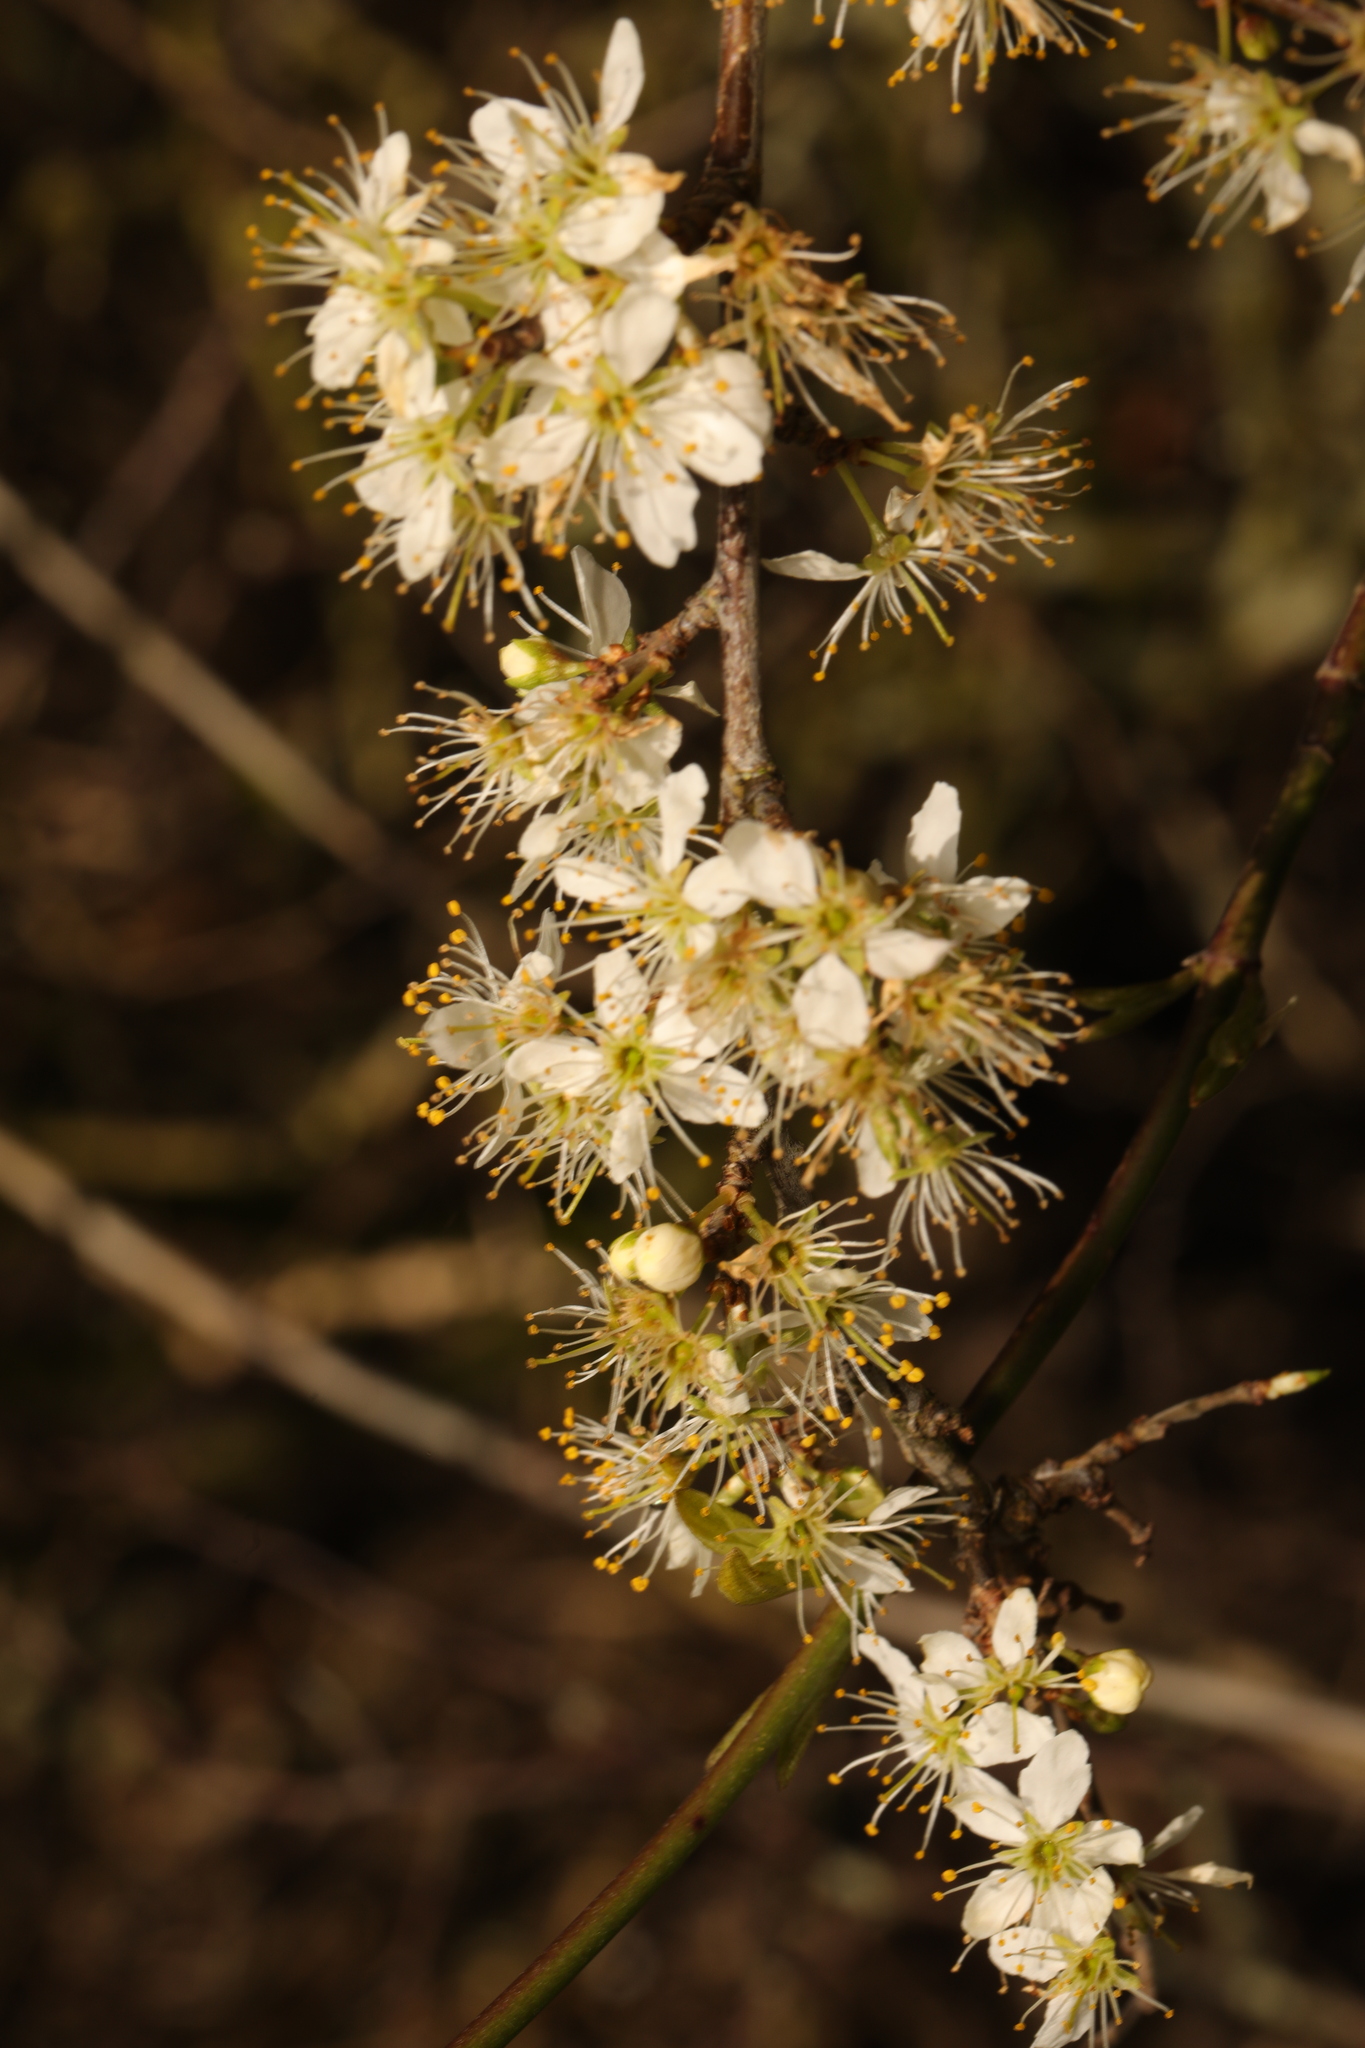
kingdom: Plantae
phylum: Tracheophyta
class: Magnoliopsida
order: Rosales
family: Rosaceae
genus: Prunus
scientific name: Prunus spinosa
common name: Blackthorn
